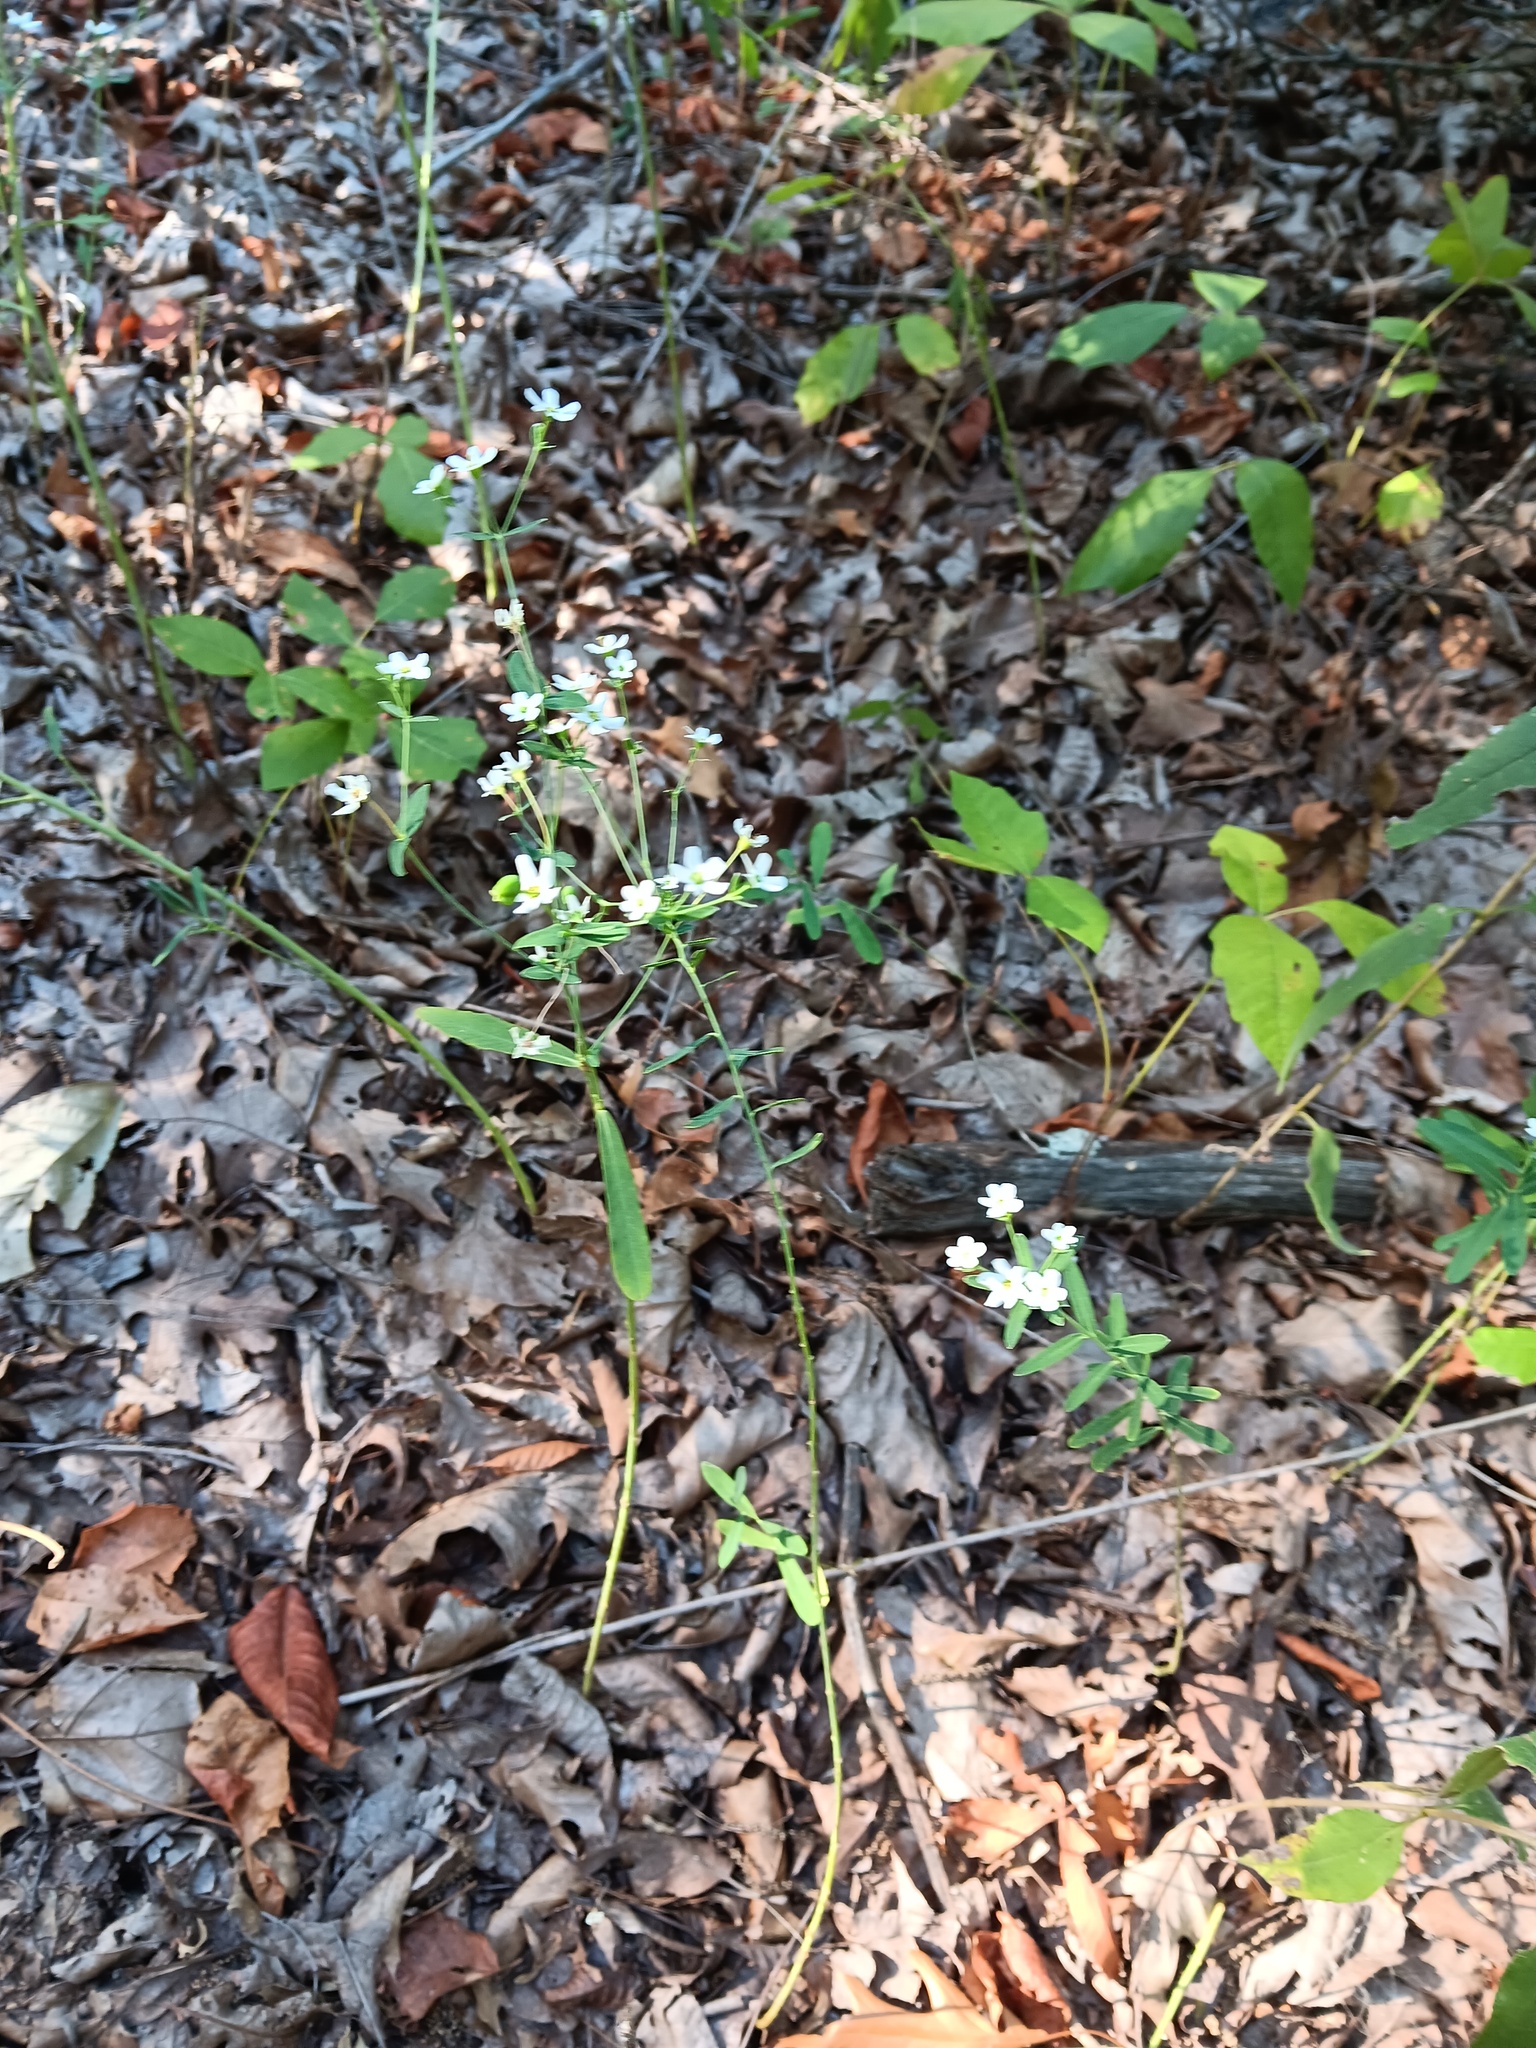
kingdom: Plantae
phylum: Tracheophyta
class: Magnoliopsida
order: Malpighiales
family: Euphorbiaceae
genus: Euphorbia
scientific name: Euphorbia corollata
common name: Flowering spurge
